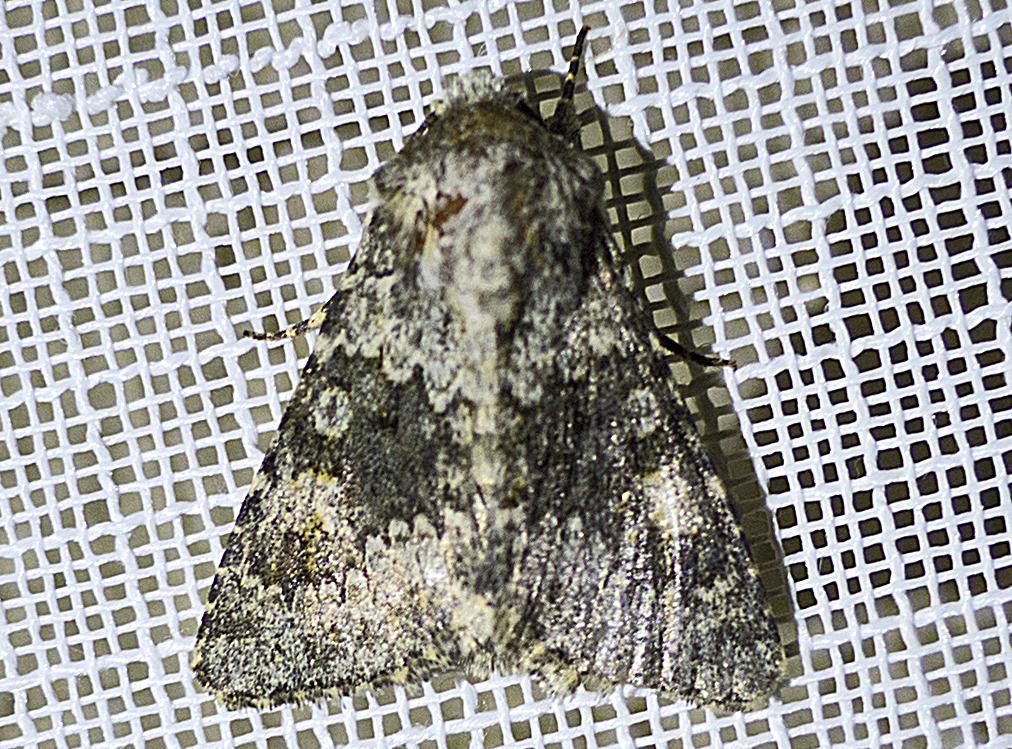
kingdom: Animalia
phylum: Arthropoda
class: Insecta
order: Lepidoptera
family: Noctuidae
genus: Hecatera
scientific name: Hecatera dysodea
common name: Small ranunculus
